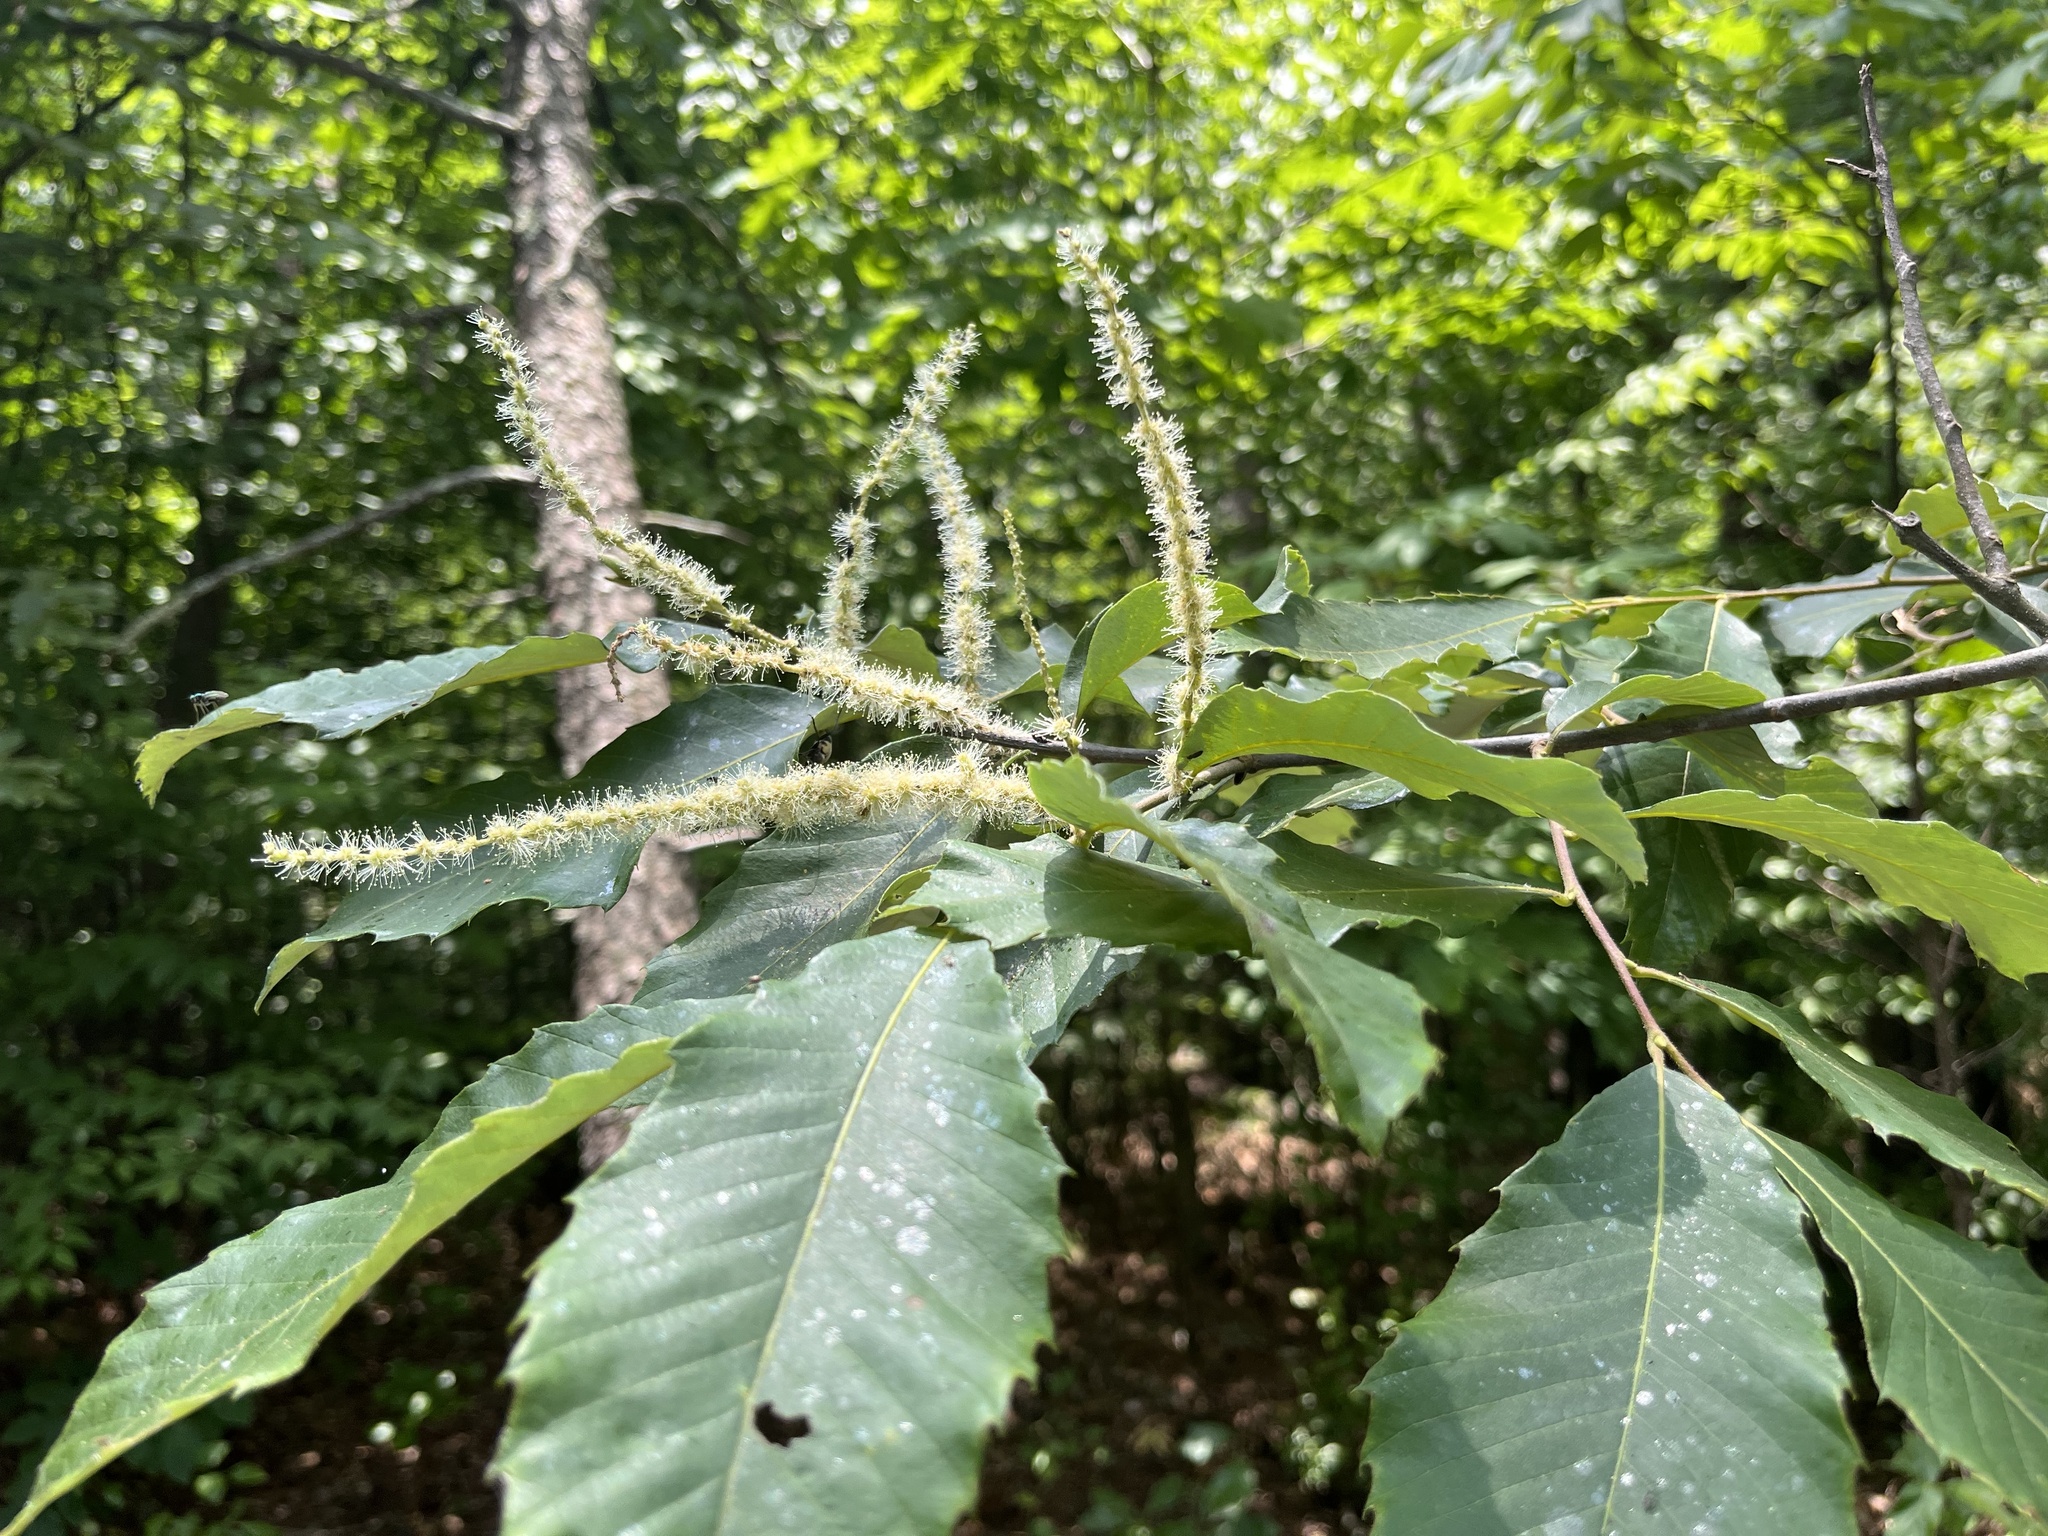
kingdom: Plantae
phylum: Tracheophyta
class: Magnoliopsida
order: Fagales
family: Fagaceae
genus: Castanea
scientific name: Castanea pumila
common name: Chinkapin
